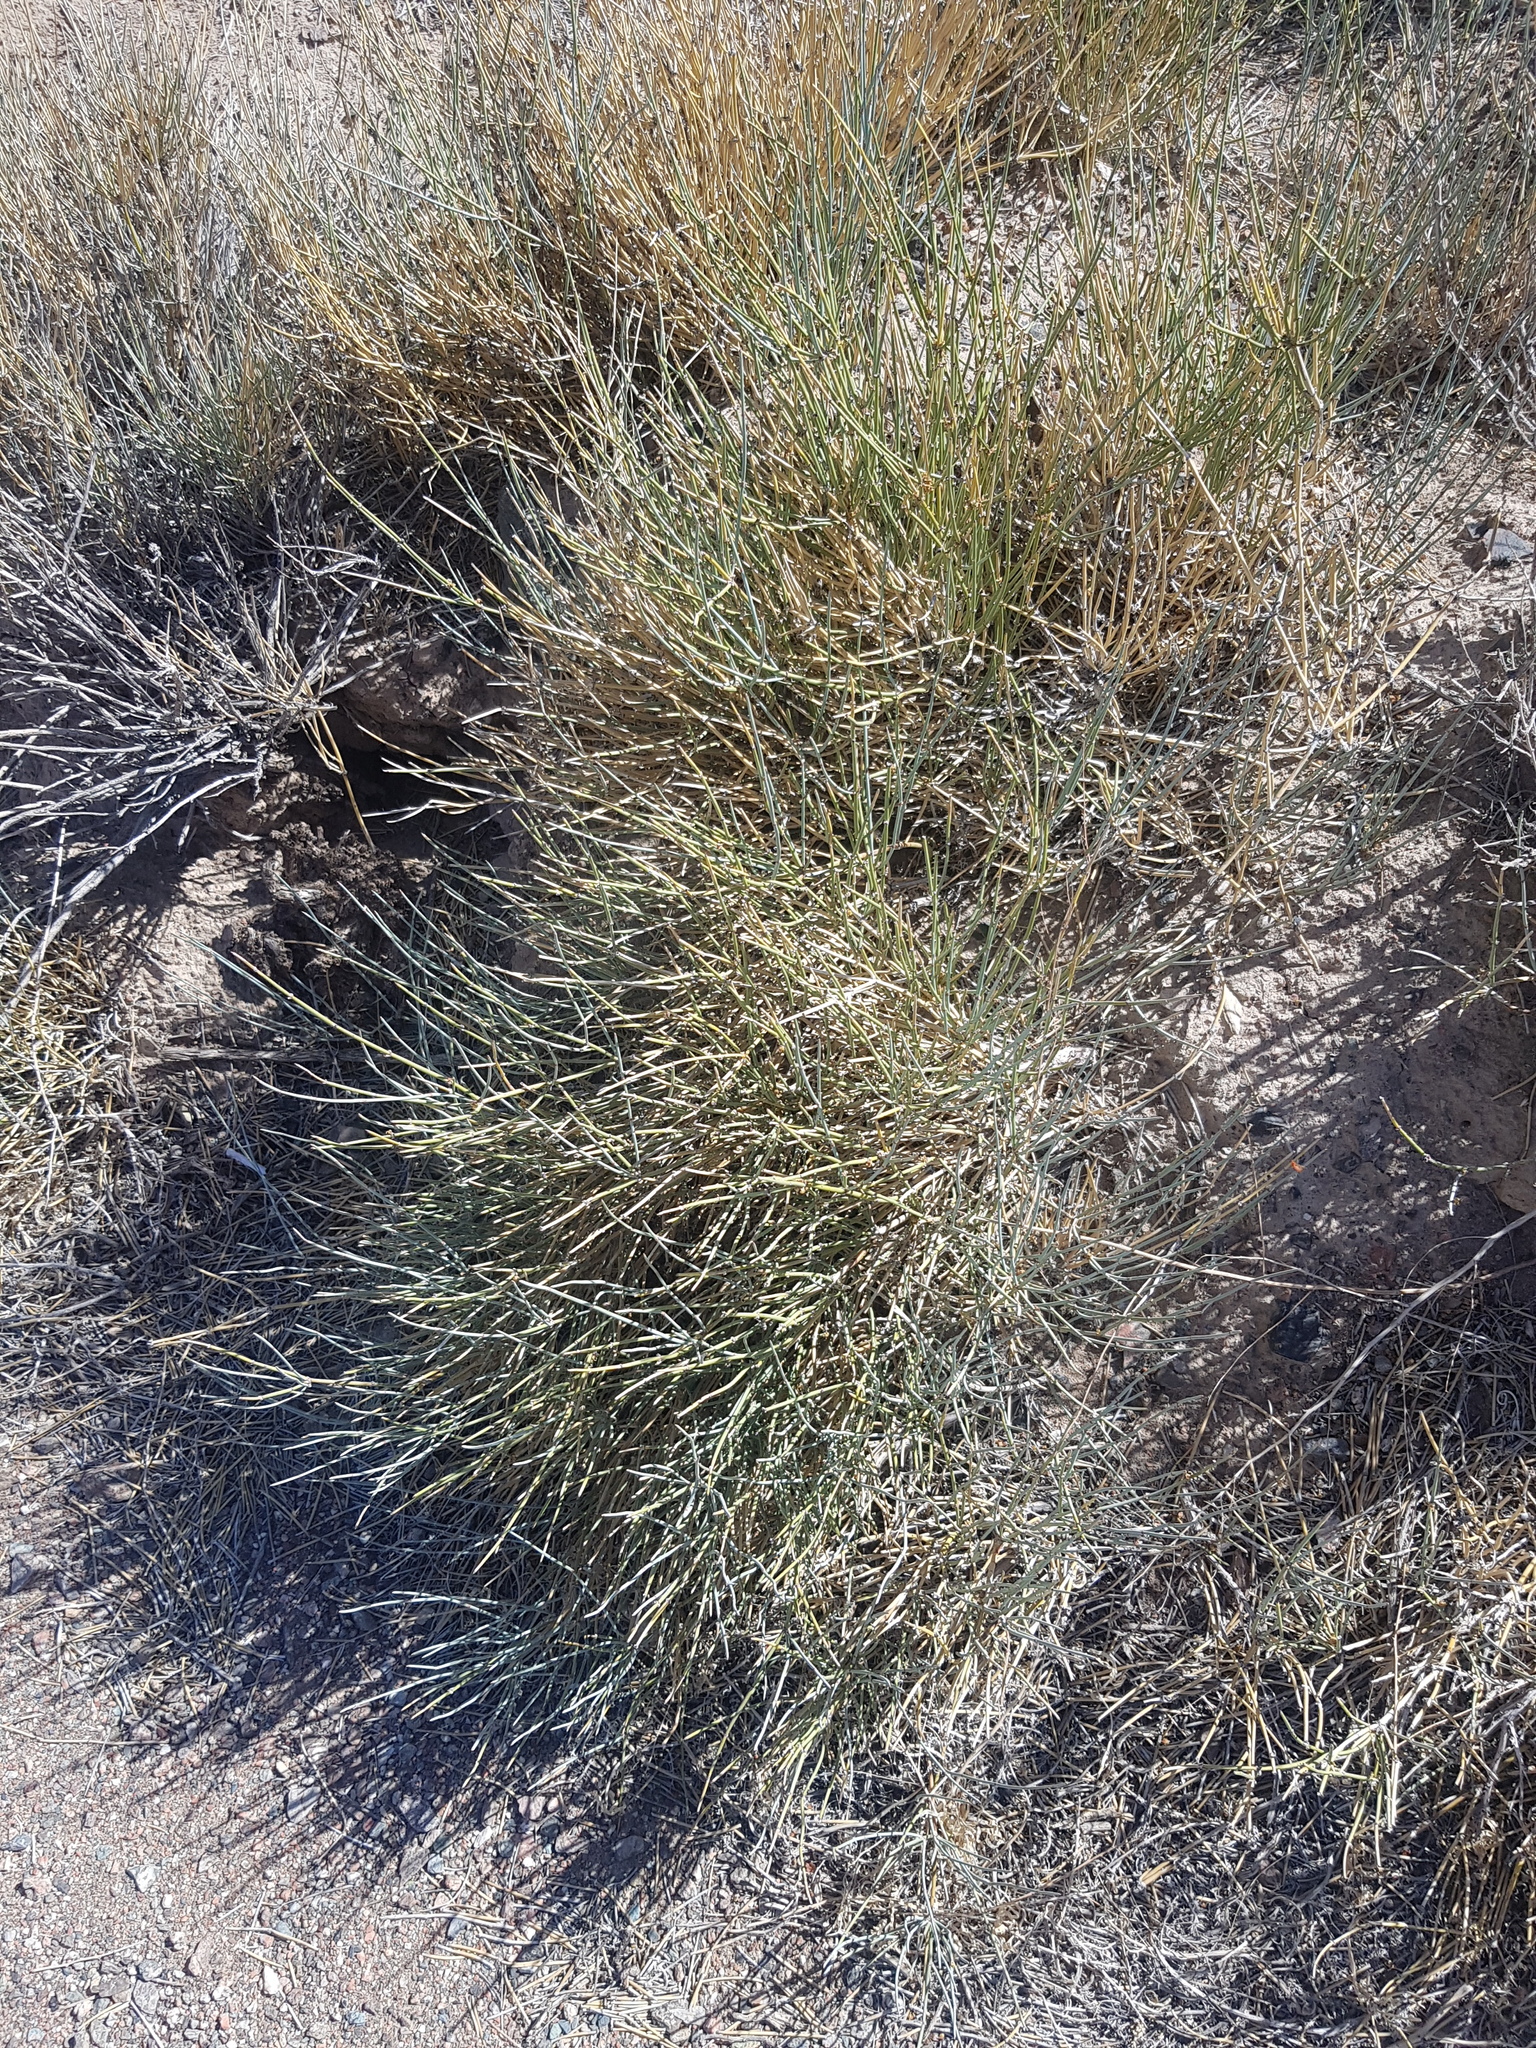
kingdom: Plantae
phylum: Tracheophyta
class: Gnetopsida
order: Ephedrales
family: Ephedraceae
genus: Ephedra
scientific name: Ephedra equisetina
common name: Mongolian ephedra
